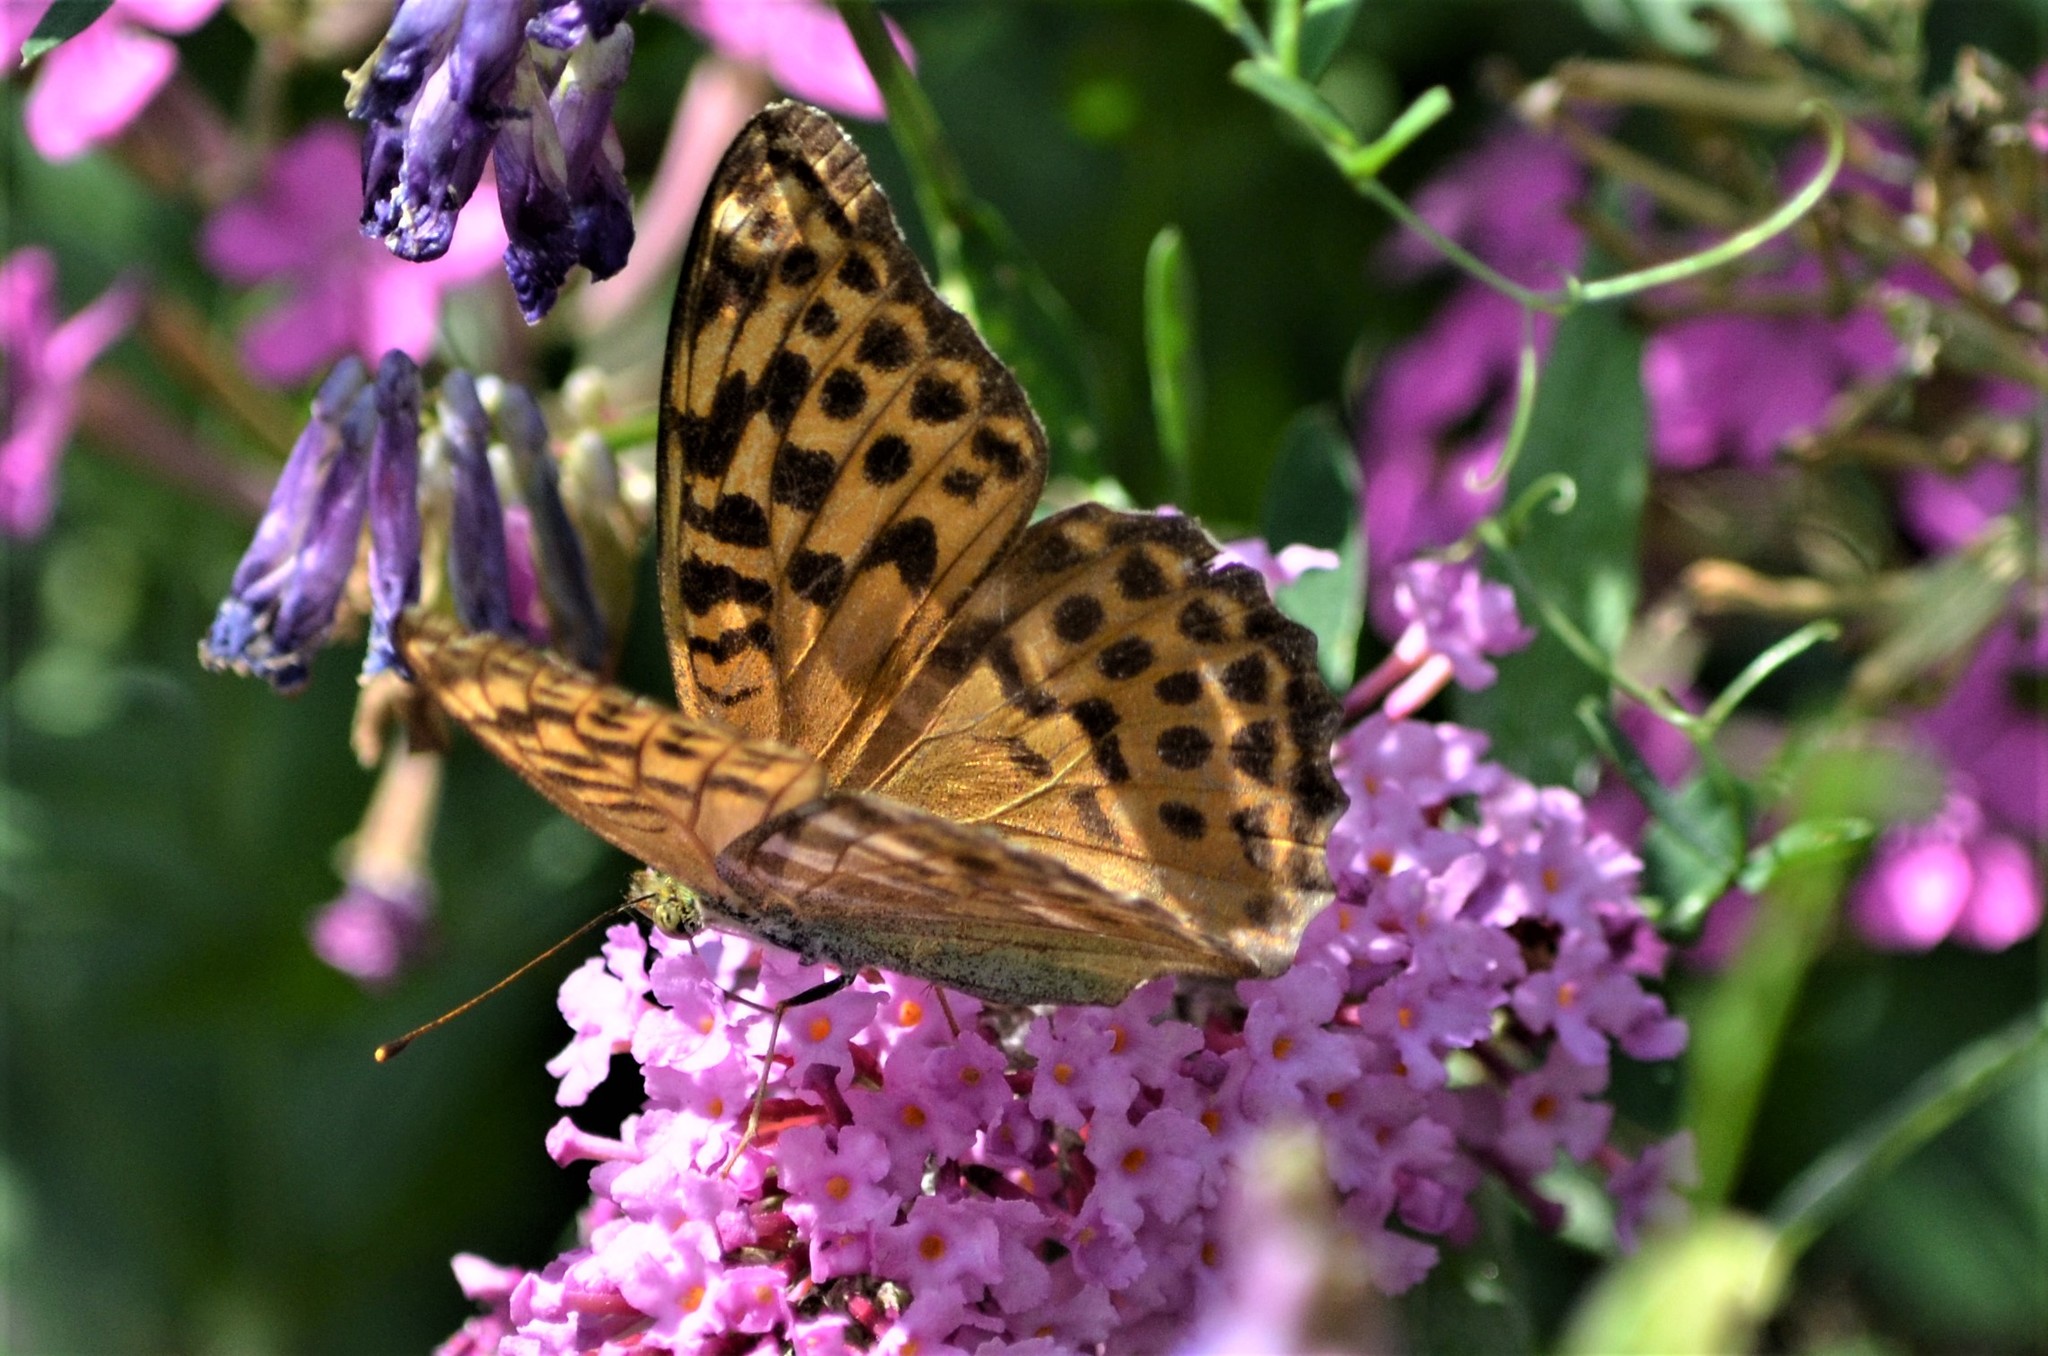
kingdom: Animalia
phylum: Arthropoda
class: Insecta
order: Lepidoptera
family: Nymphalidae
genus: Argynnis
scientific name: Argynnis paphia
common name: Silver-washed fritillary
